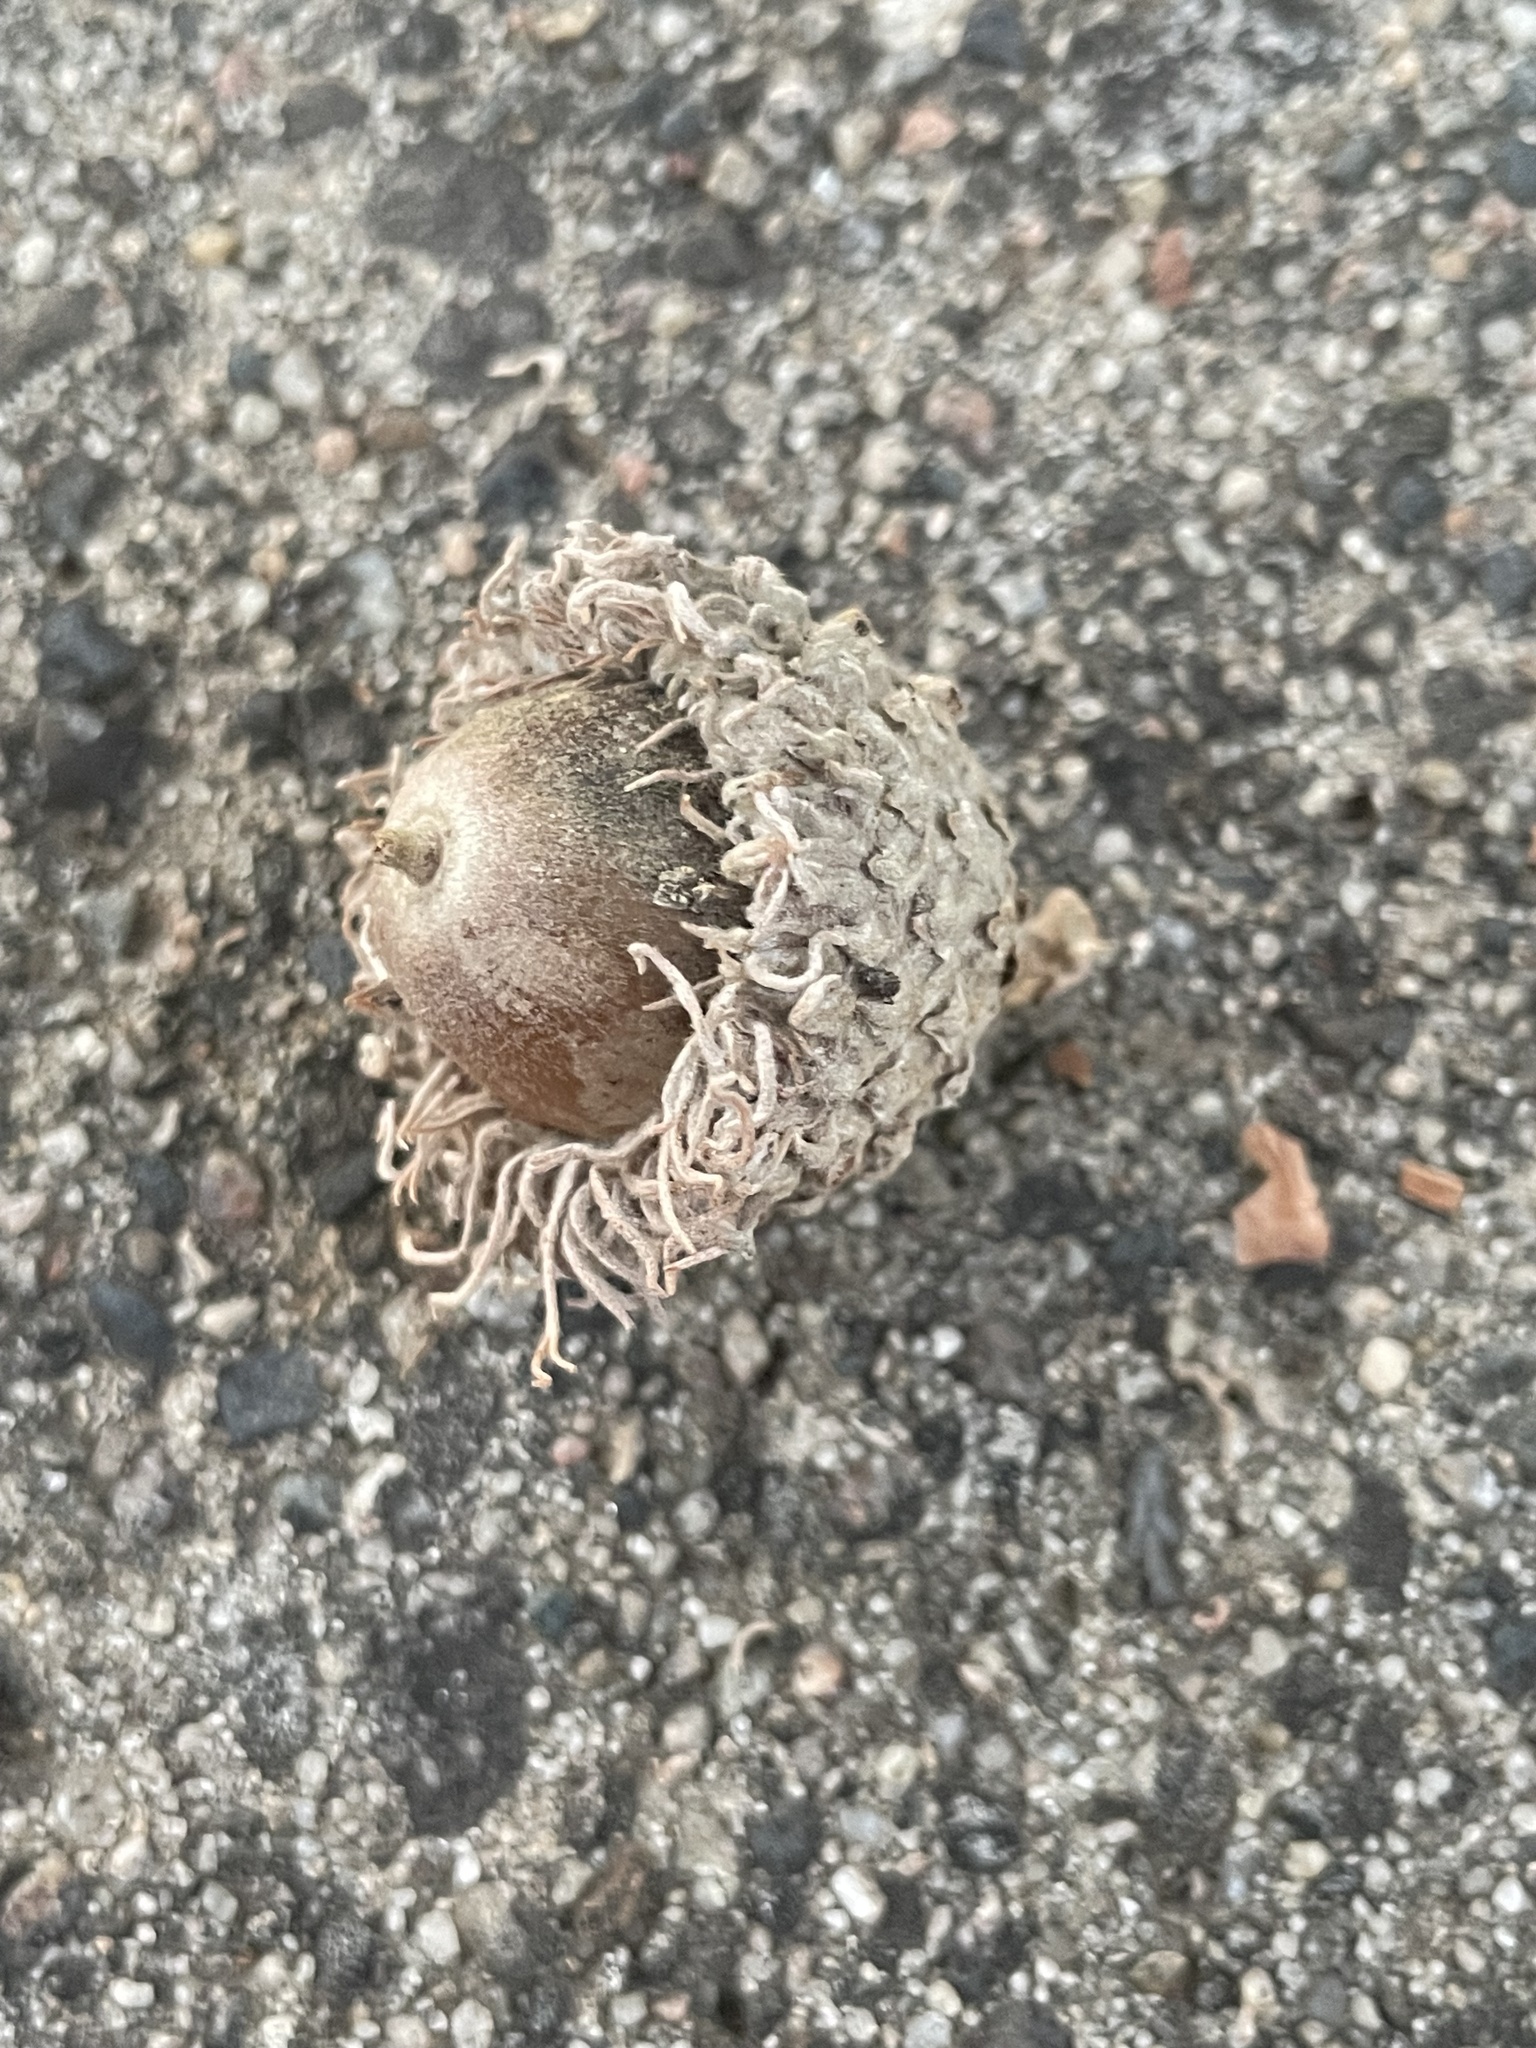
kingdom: Plantae
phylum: Tracheophyta
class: Magnoliopsida
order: Fagales
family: Fagaceae
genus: Quercus
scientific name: Quercus macrocarpa
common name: Bur oak
